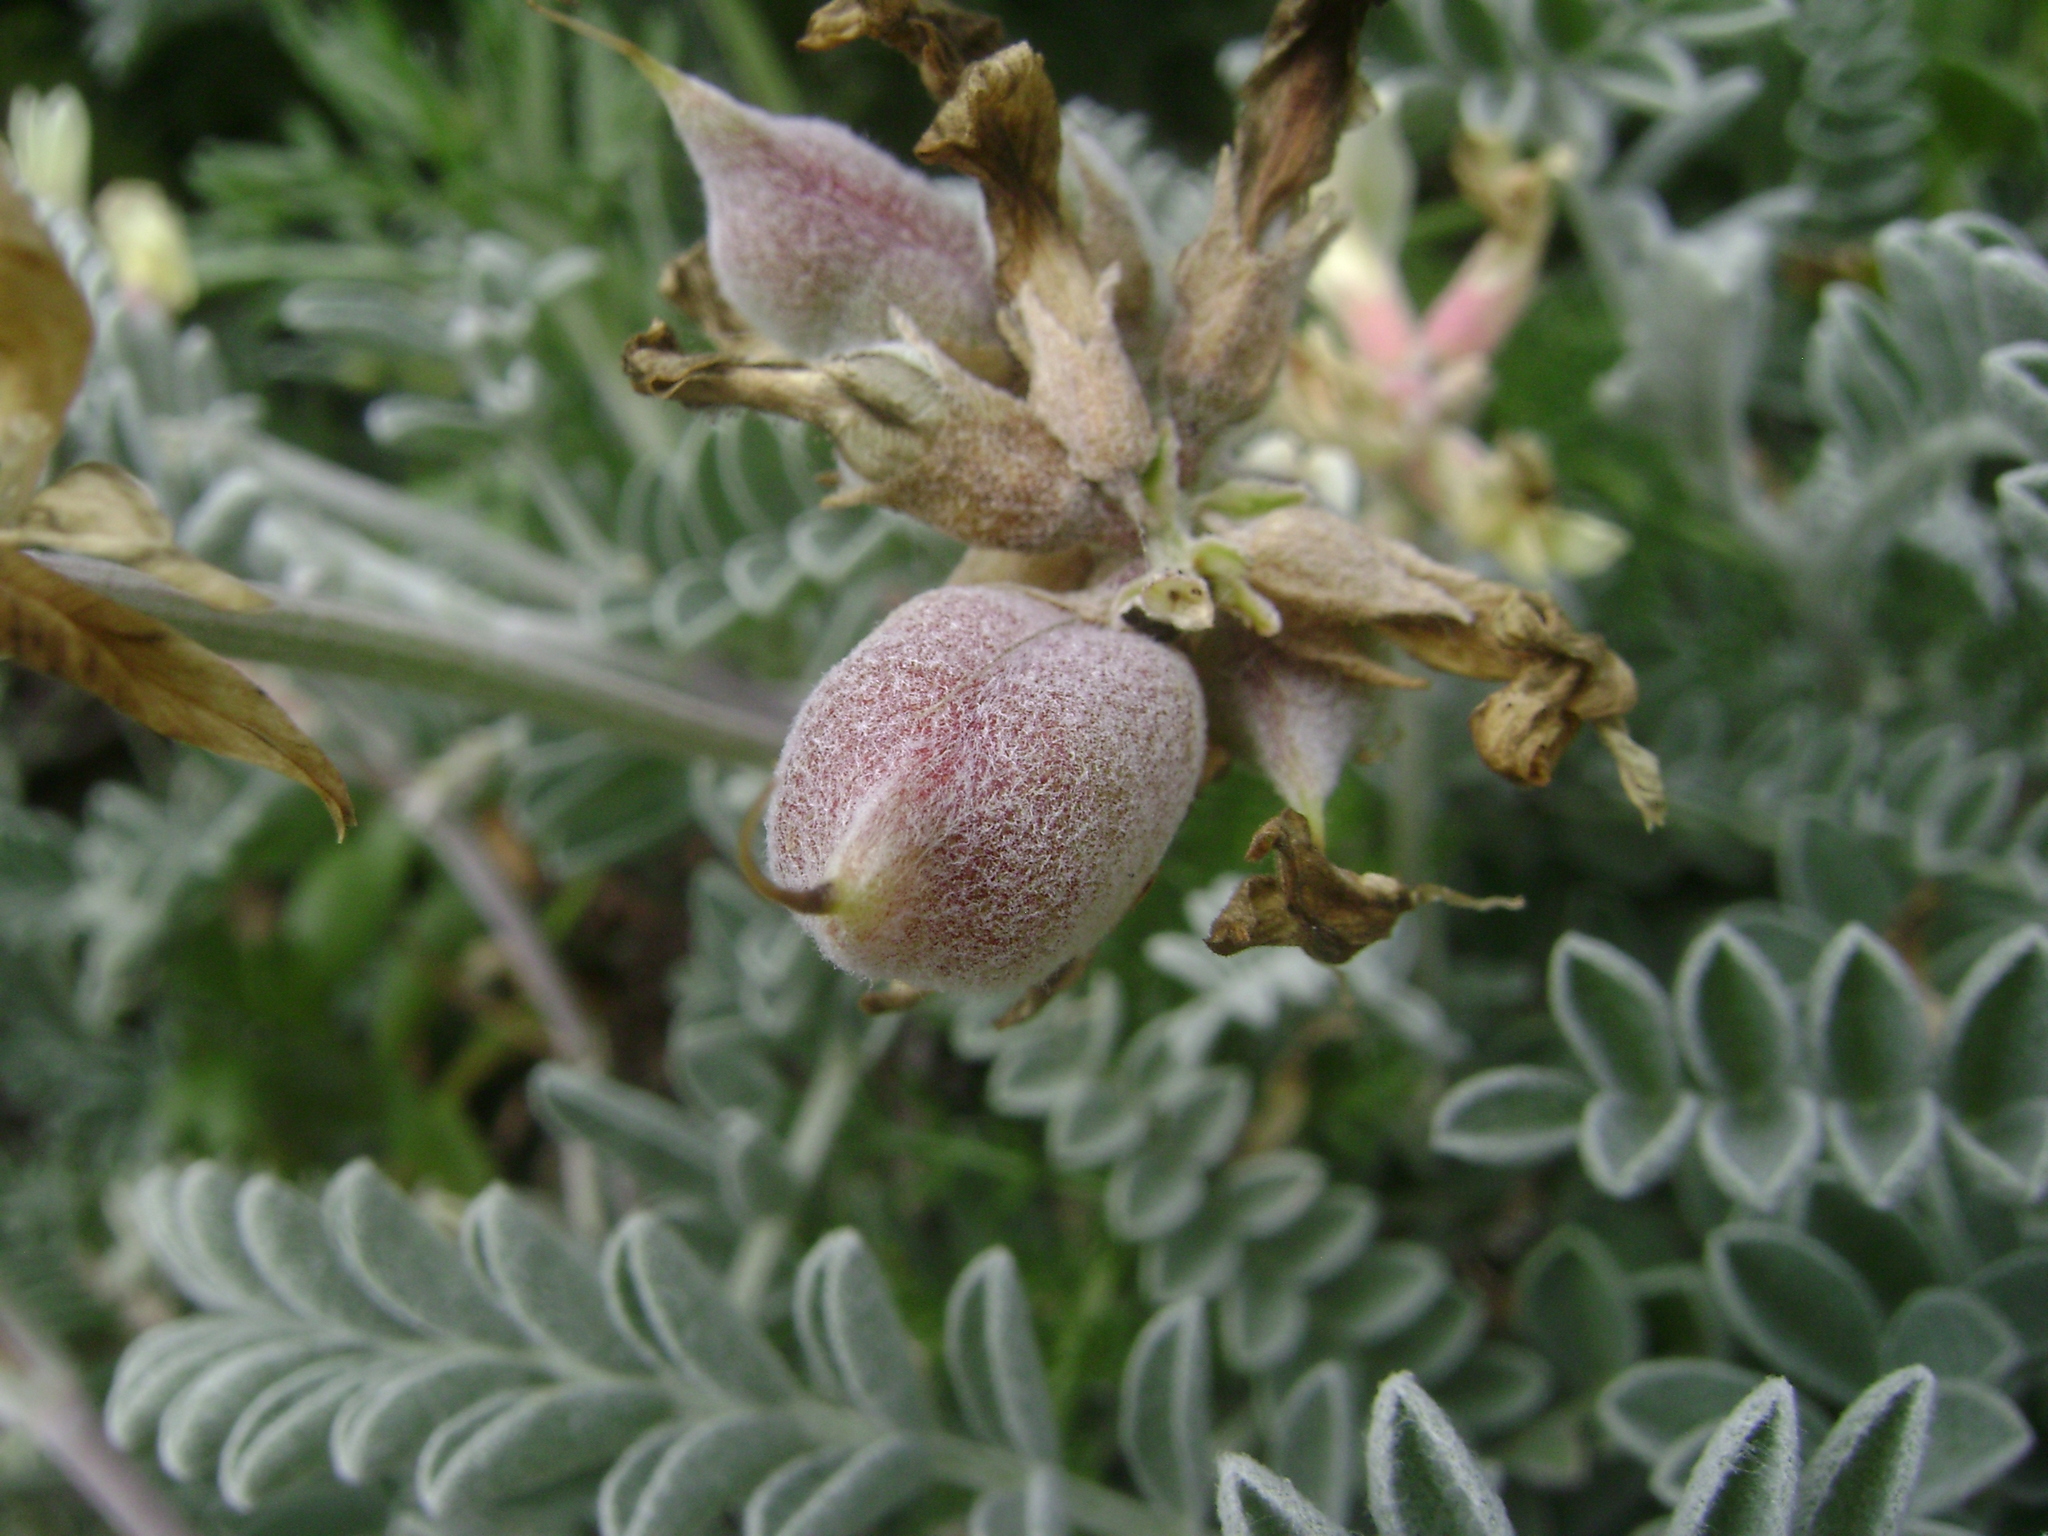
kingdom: Plantae
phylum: Tracheophyta
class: Magnoliopsida
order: Fabales
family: Fabaceae
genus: Astragalus
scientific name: Astragalus miguelensis
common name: San miguel milk-vetch
